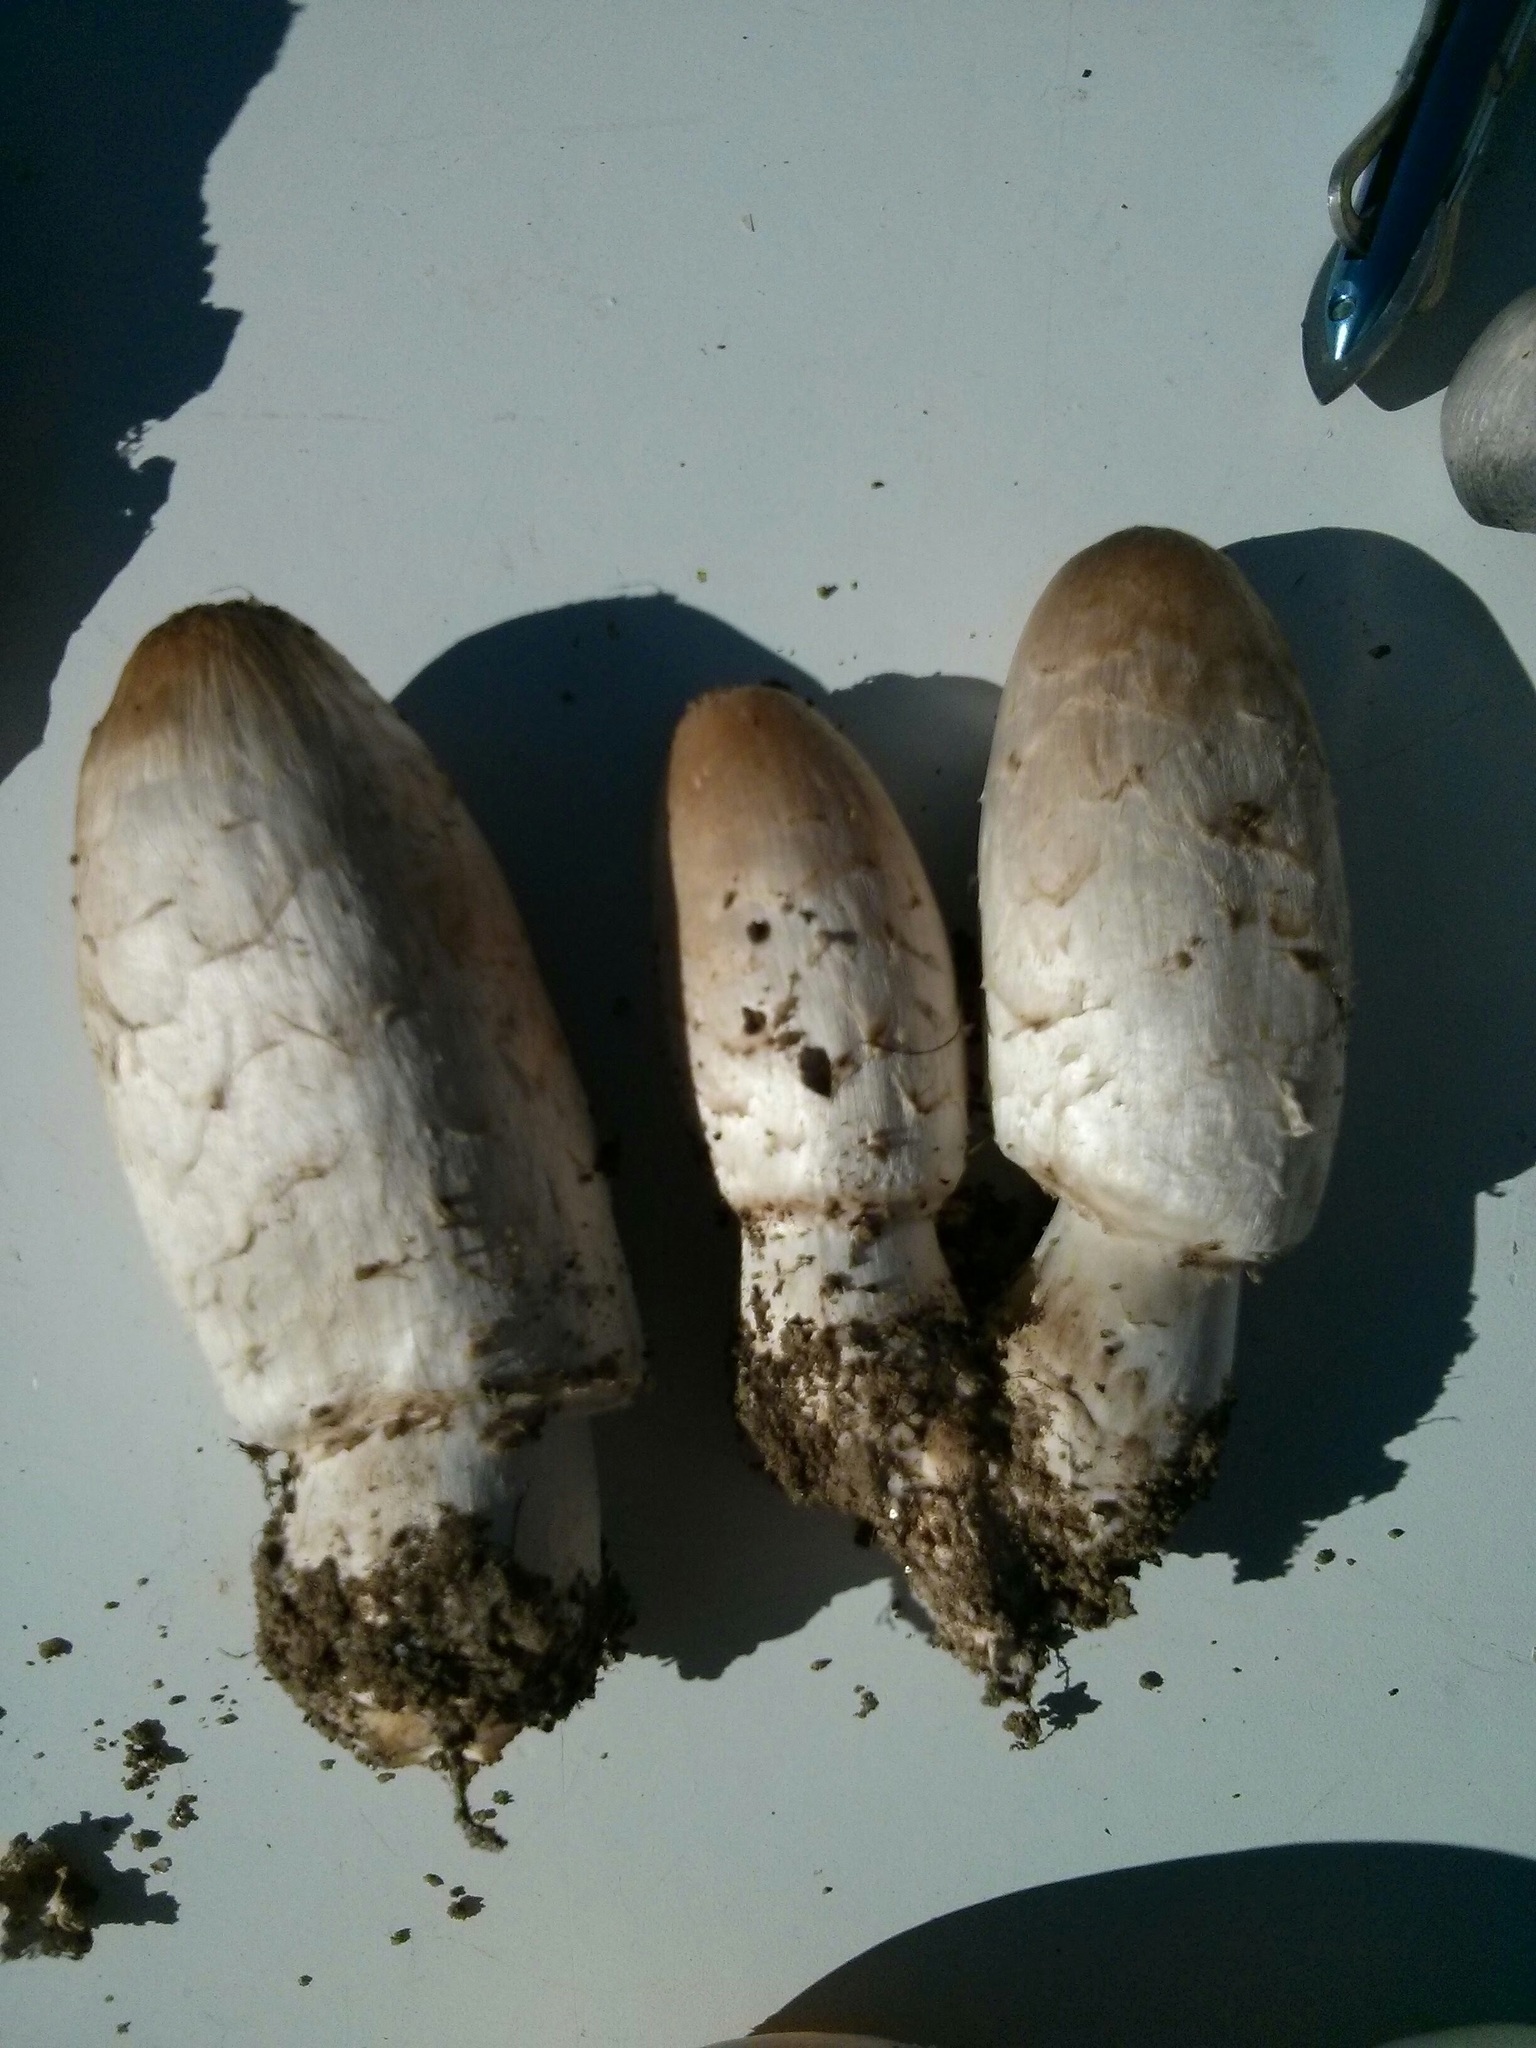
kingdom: Fungi
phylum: Basidiomycota
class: Agaricomycetes
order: Agaricales
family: Agaricaceae
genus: Coprinus
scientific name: Coprinus comatus
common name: Lawyer's wig
